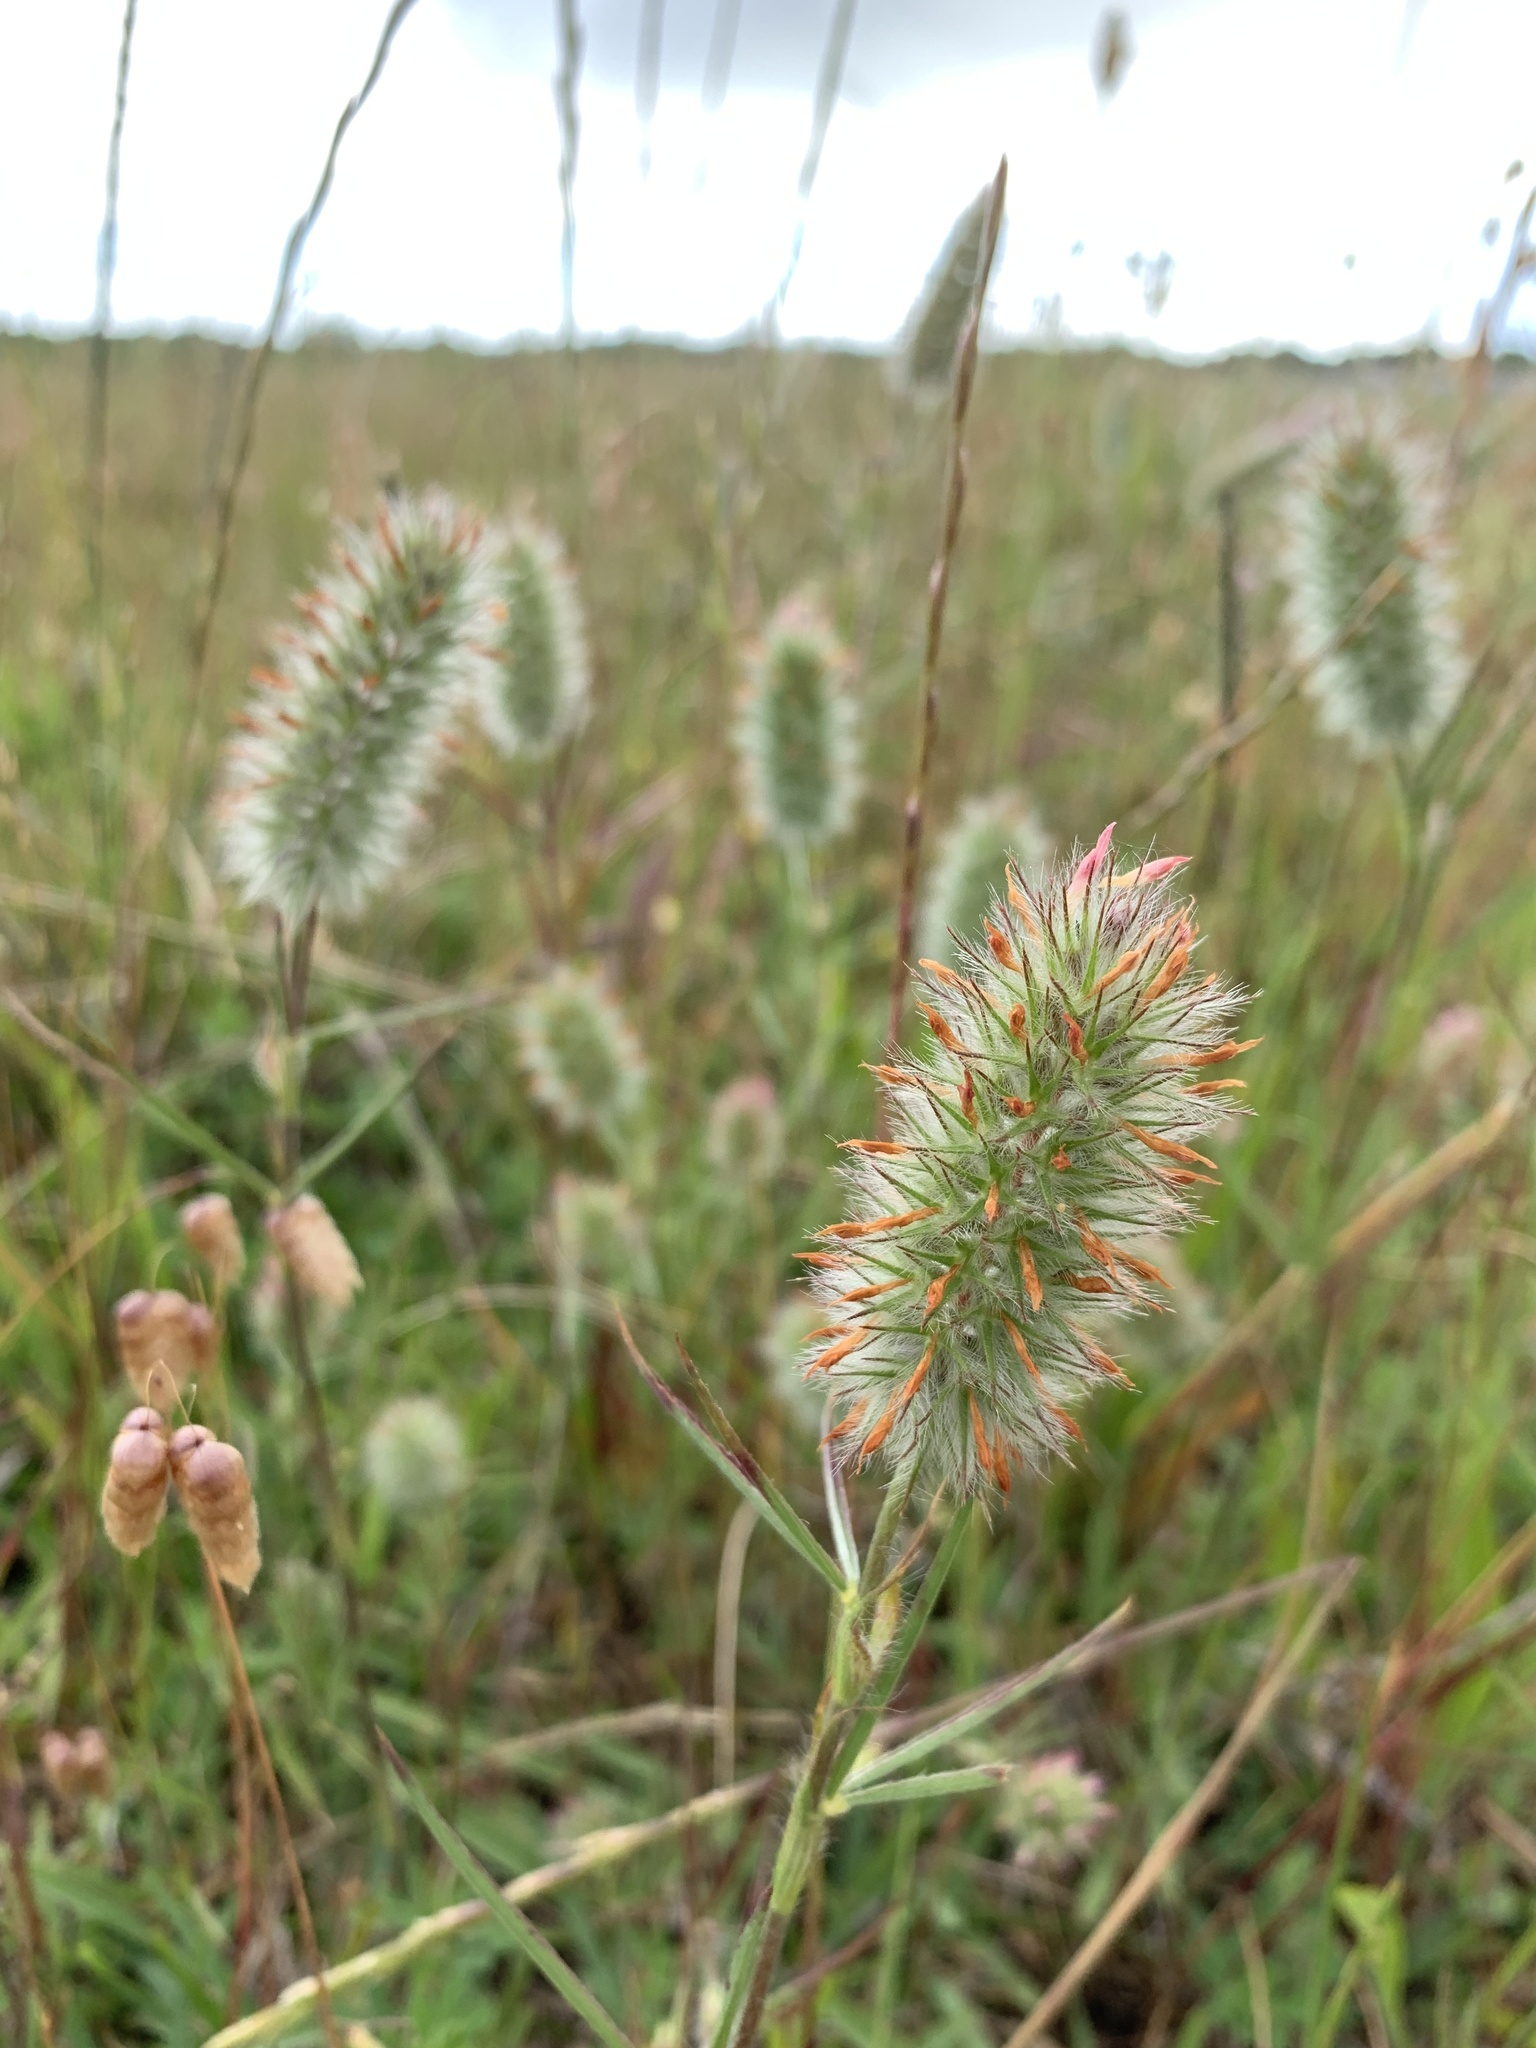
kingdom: Plantae
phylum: Tracheophyta
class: Magnoliopsida
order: Fabales
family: Fabaceae
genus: Trifolium
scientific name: Trifolium angustifolium
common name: Narrow clover
